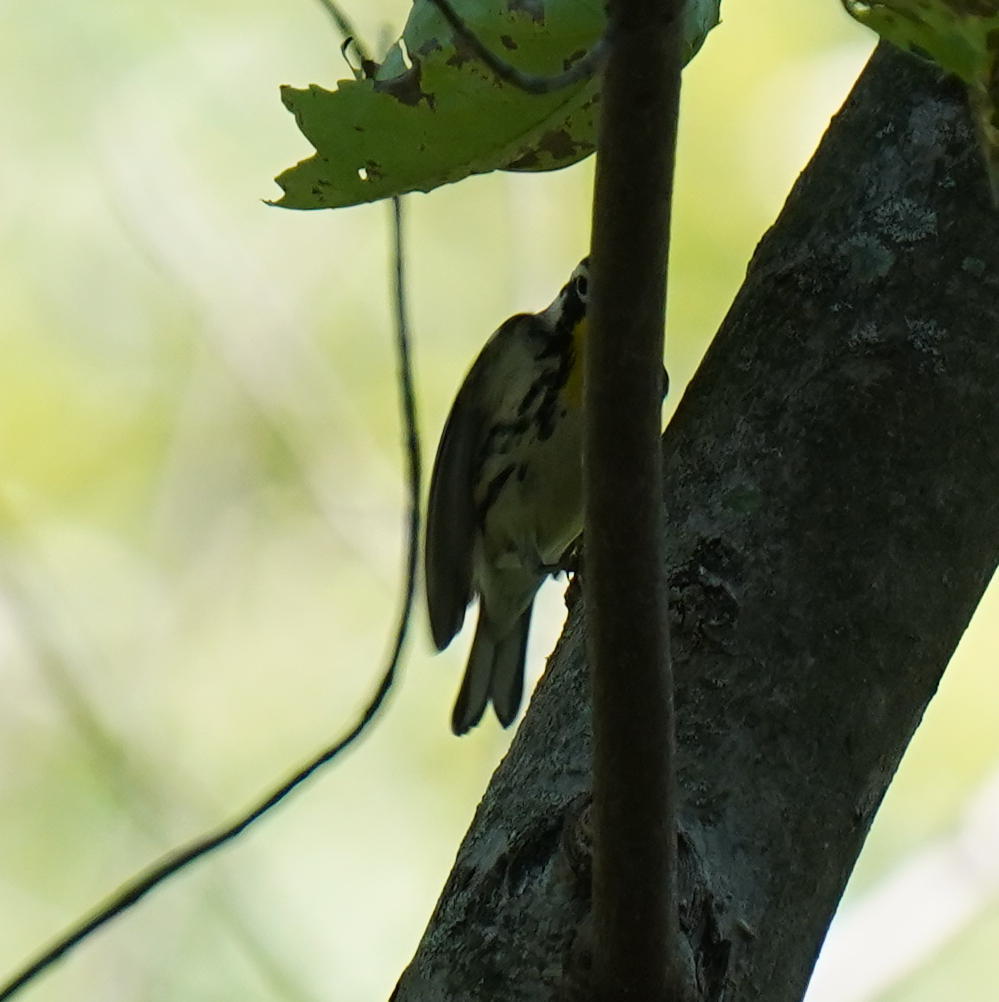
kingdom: Animalia
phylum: Chordata
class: Aves
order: Passeriformes
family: Parulidae
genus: Setophaga
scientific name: Setophaga dominica
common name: Yellow-throated warbler
